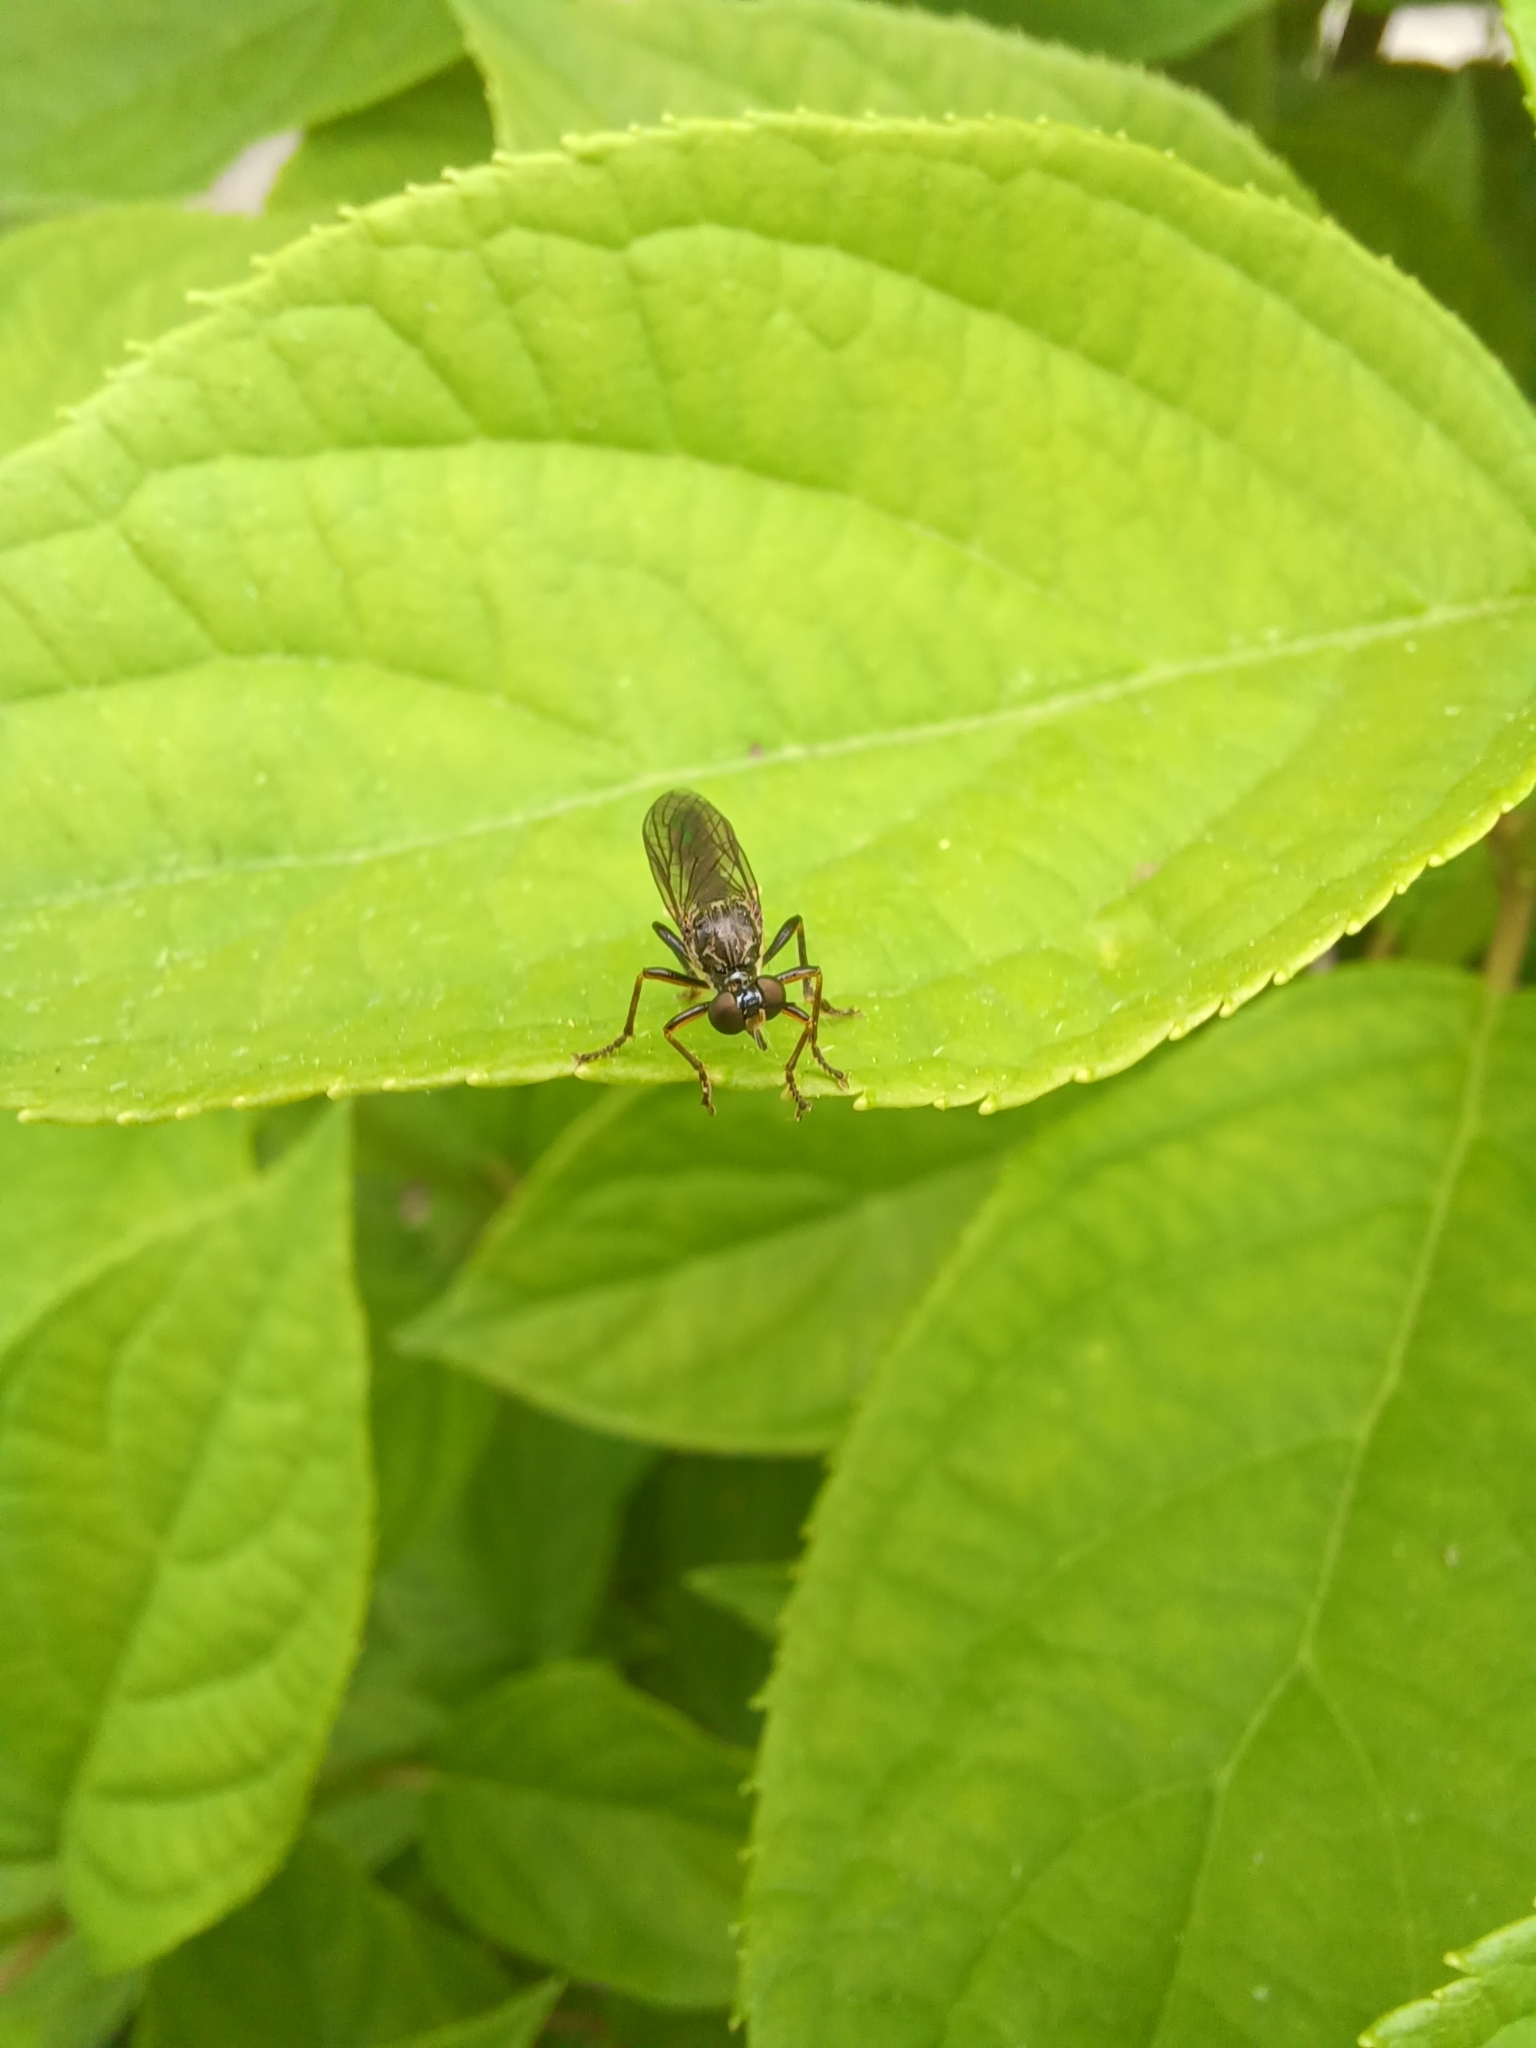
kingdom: Animalia
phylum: Arthropoda
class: Insecta
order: Diptera
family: Asilidae
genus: Dioctria
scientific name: Dioctria hyalipennis
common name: Stripe-legged robberfly
